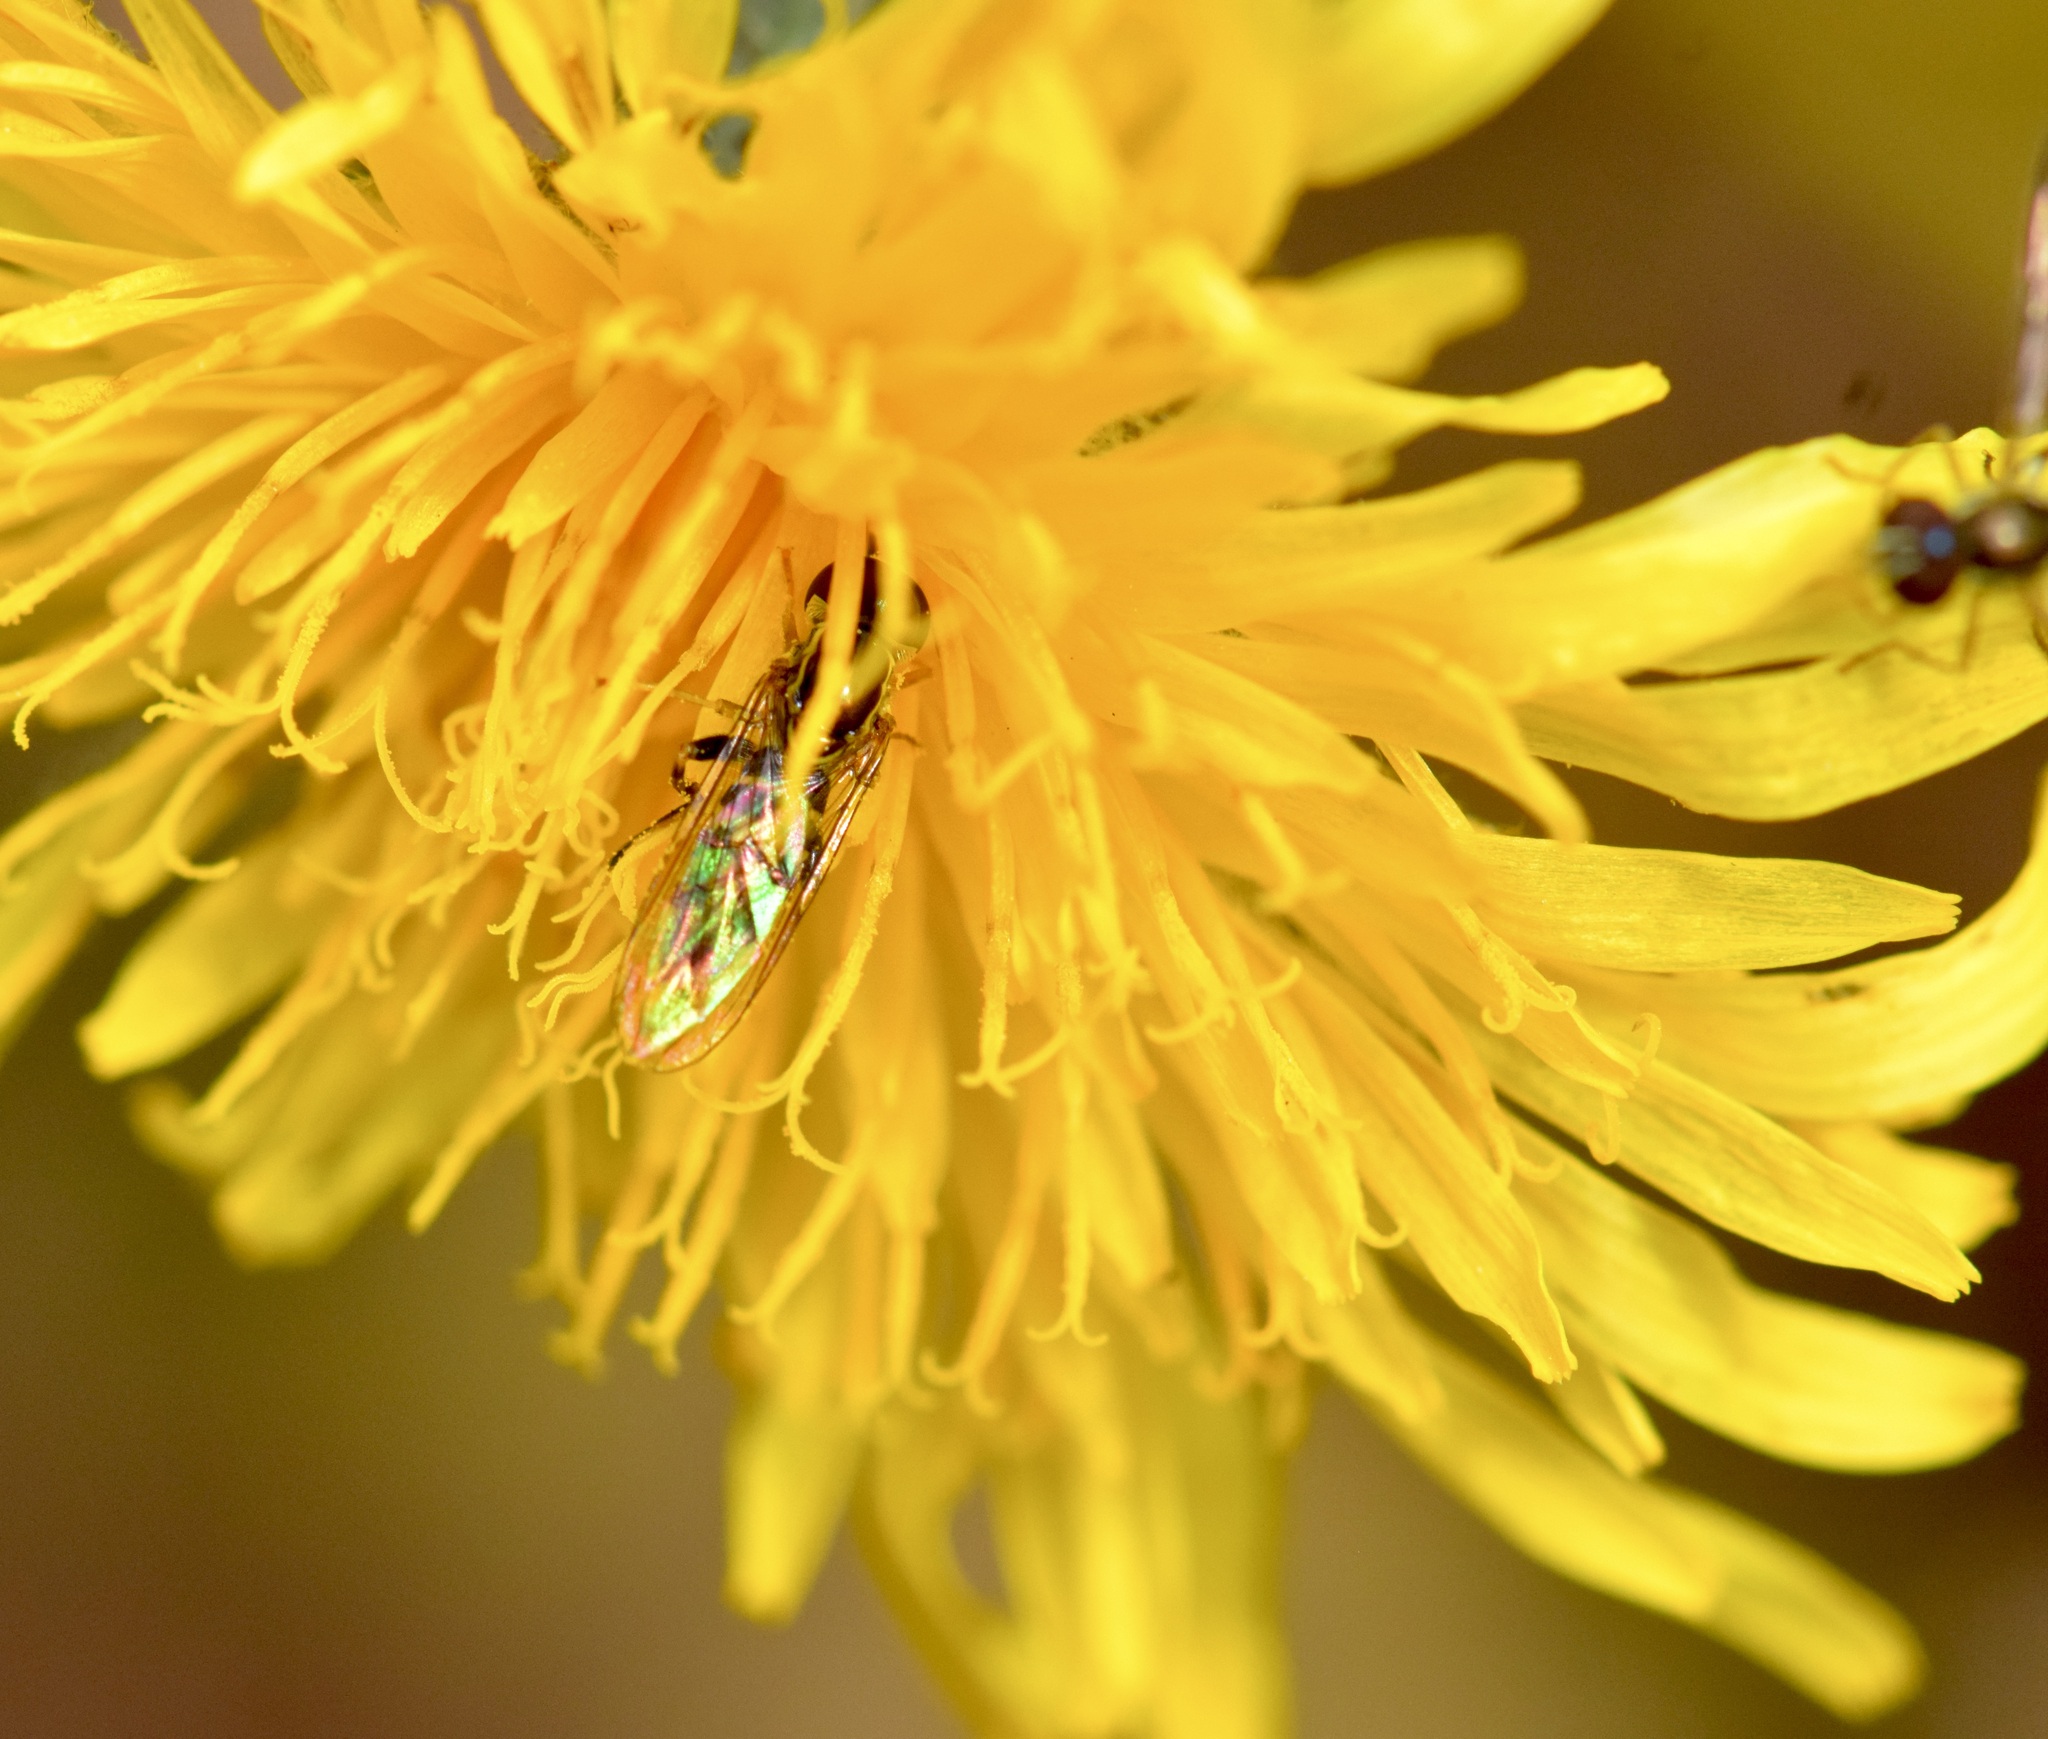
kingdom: Animalia
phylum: Arthropoda
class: Insecta
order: Diptera
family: Syrphidae
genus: Toxomerus
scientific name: Toxomerus geminatus
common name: Eastern calligrapher
